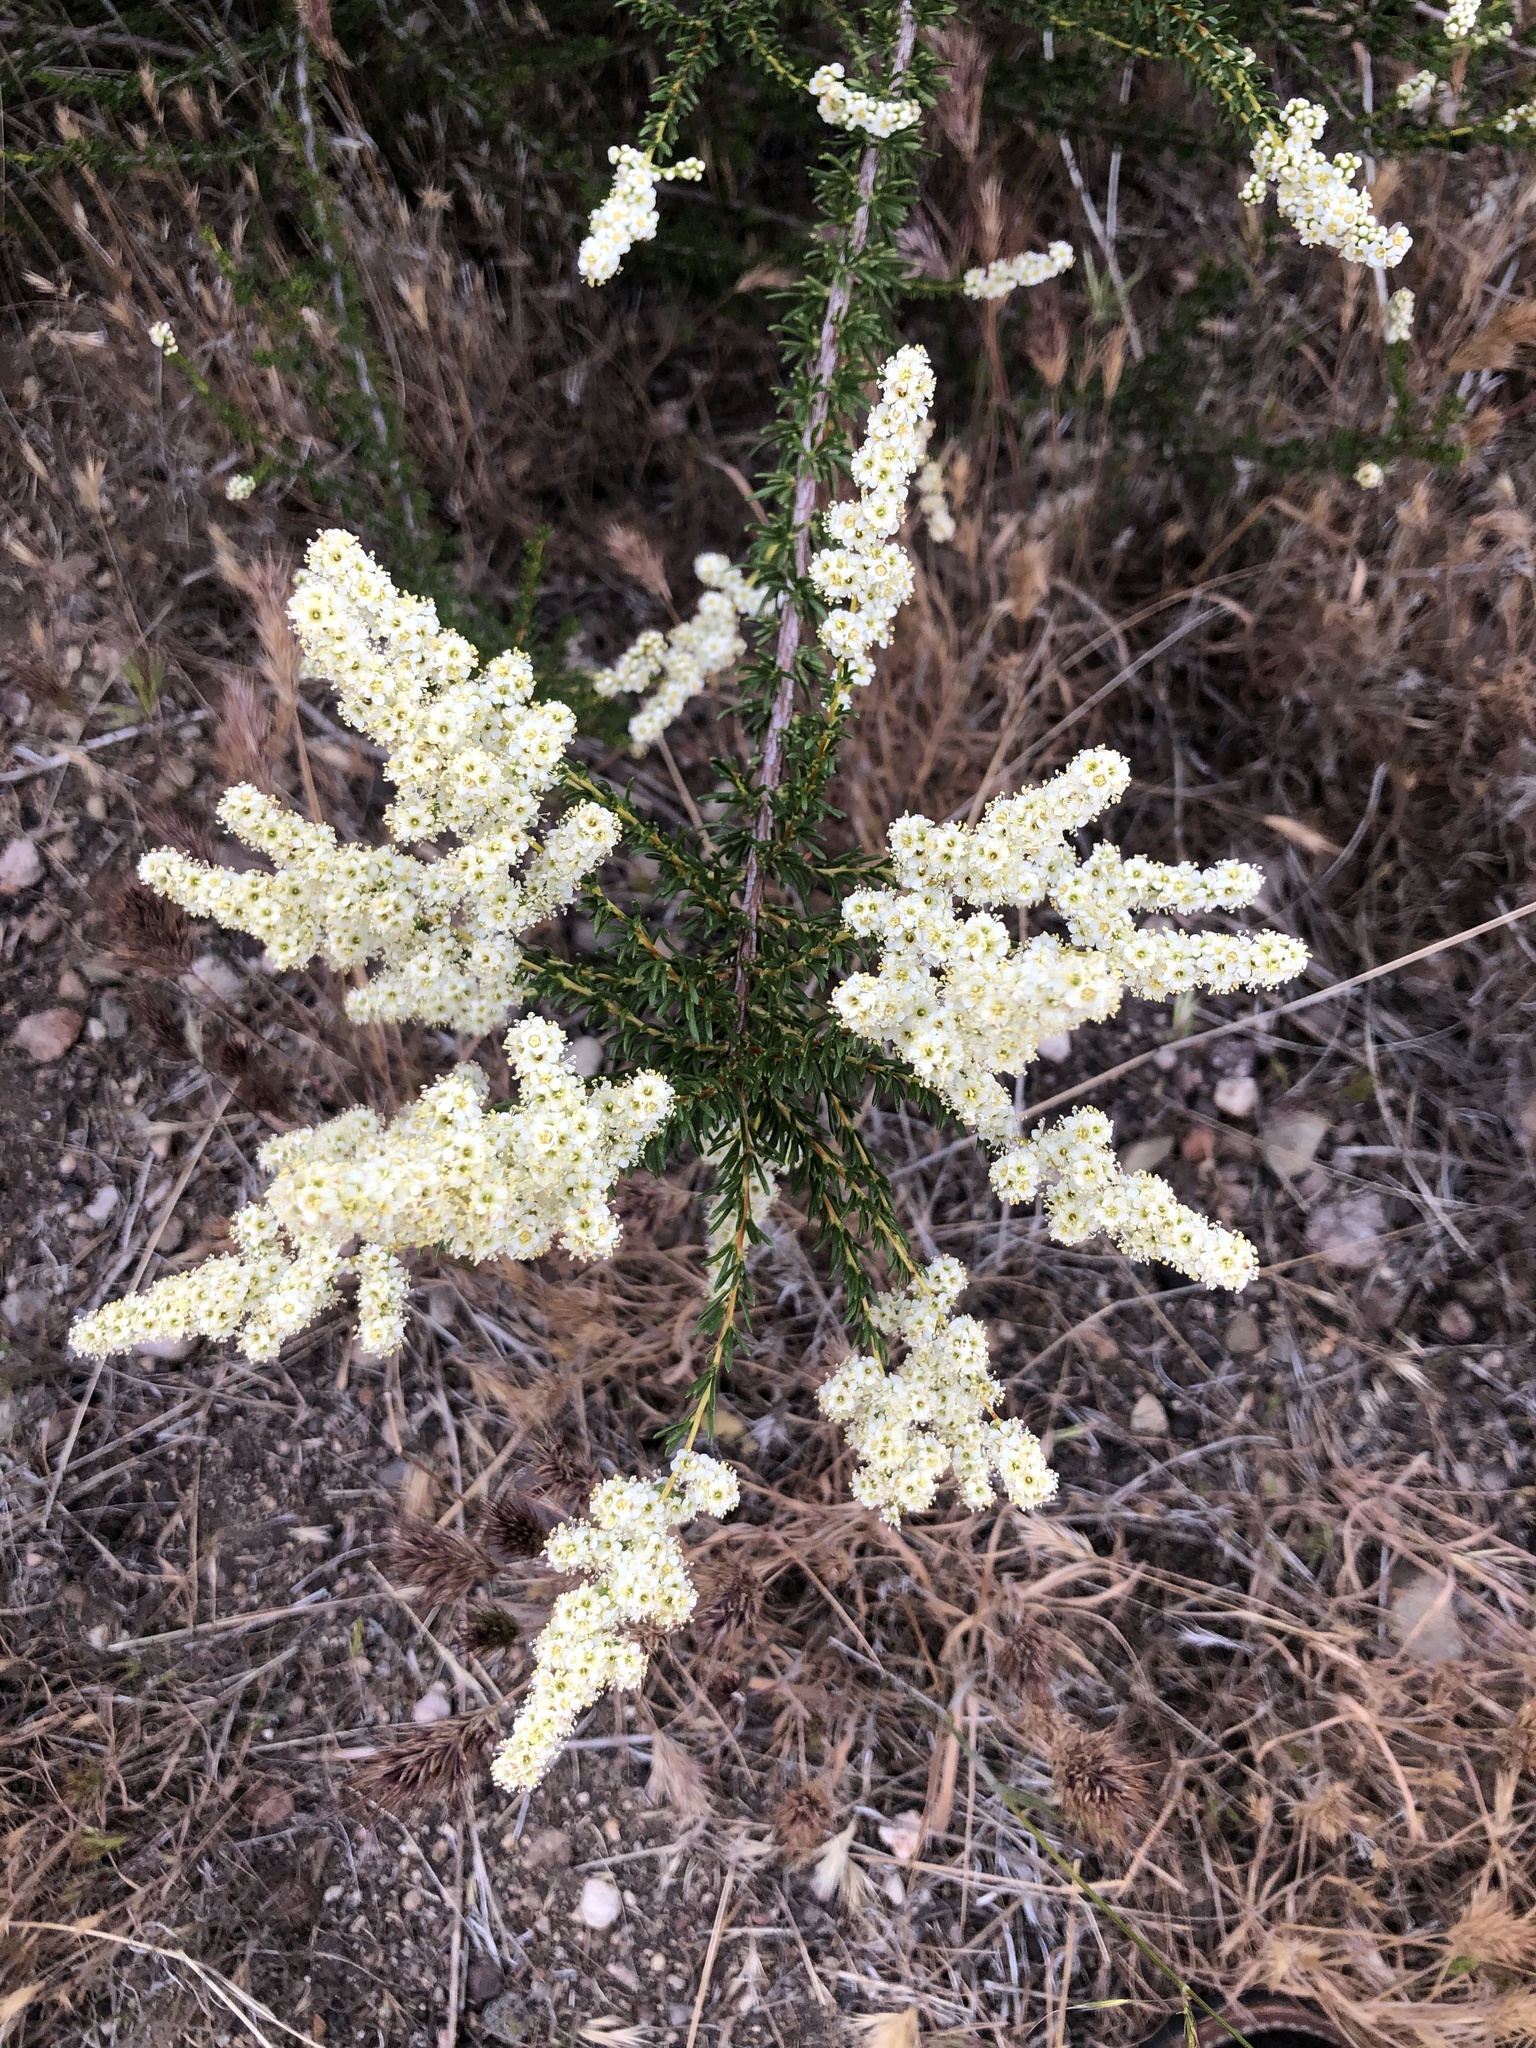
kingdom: Plantae
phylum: Tracheophyta
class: Magnoliopsida
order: Rosales
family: Rosaceae
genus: Adenostoma
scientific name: Adenostoma fasciculatum
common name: Chamise
